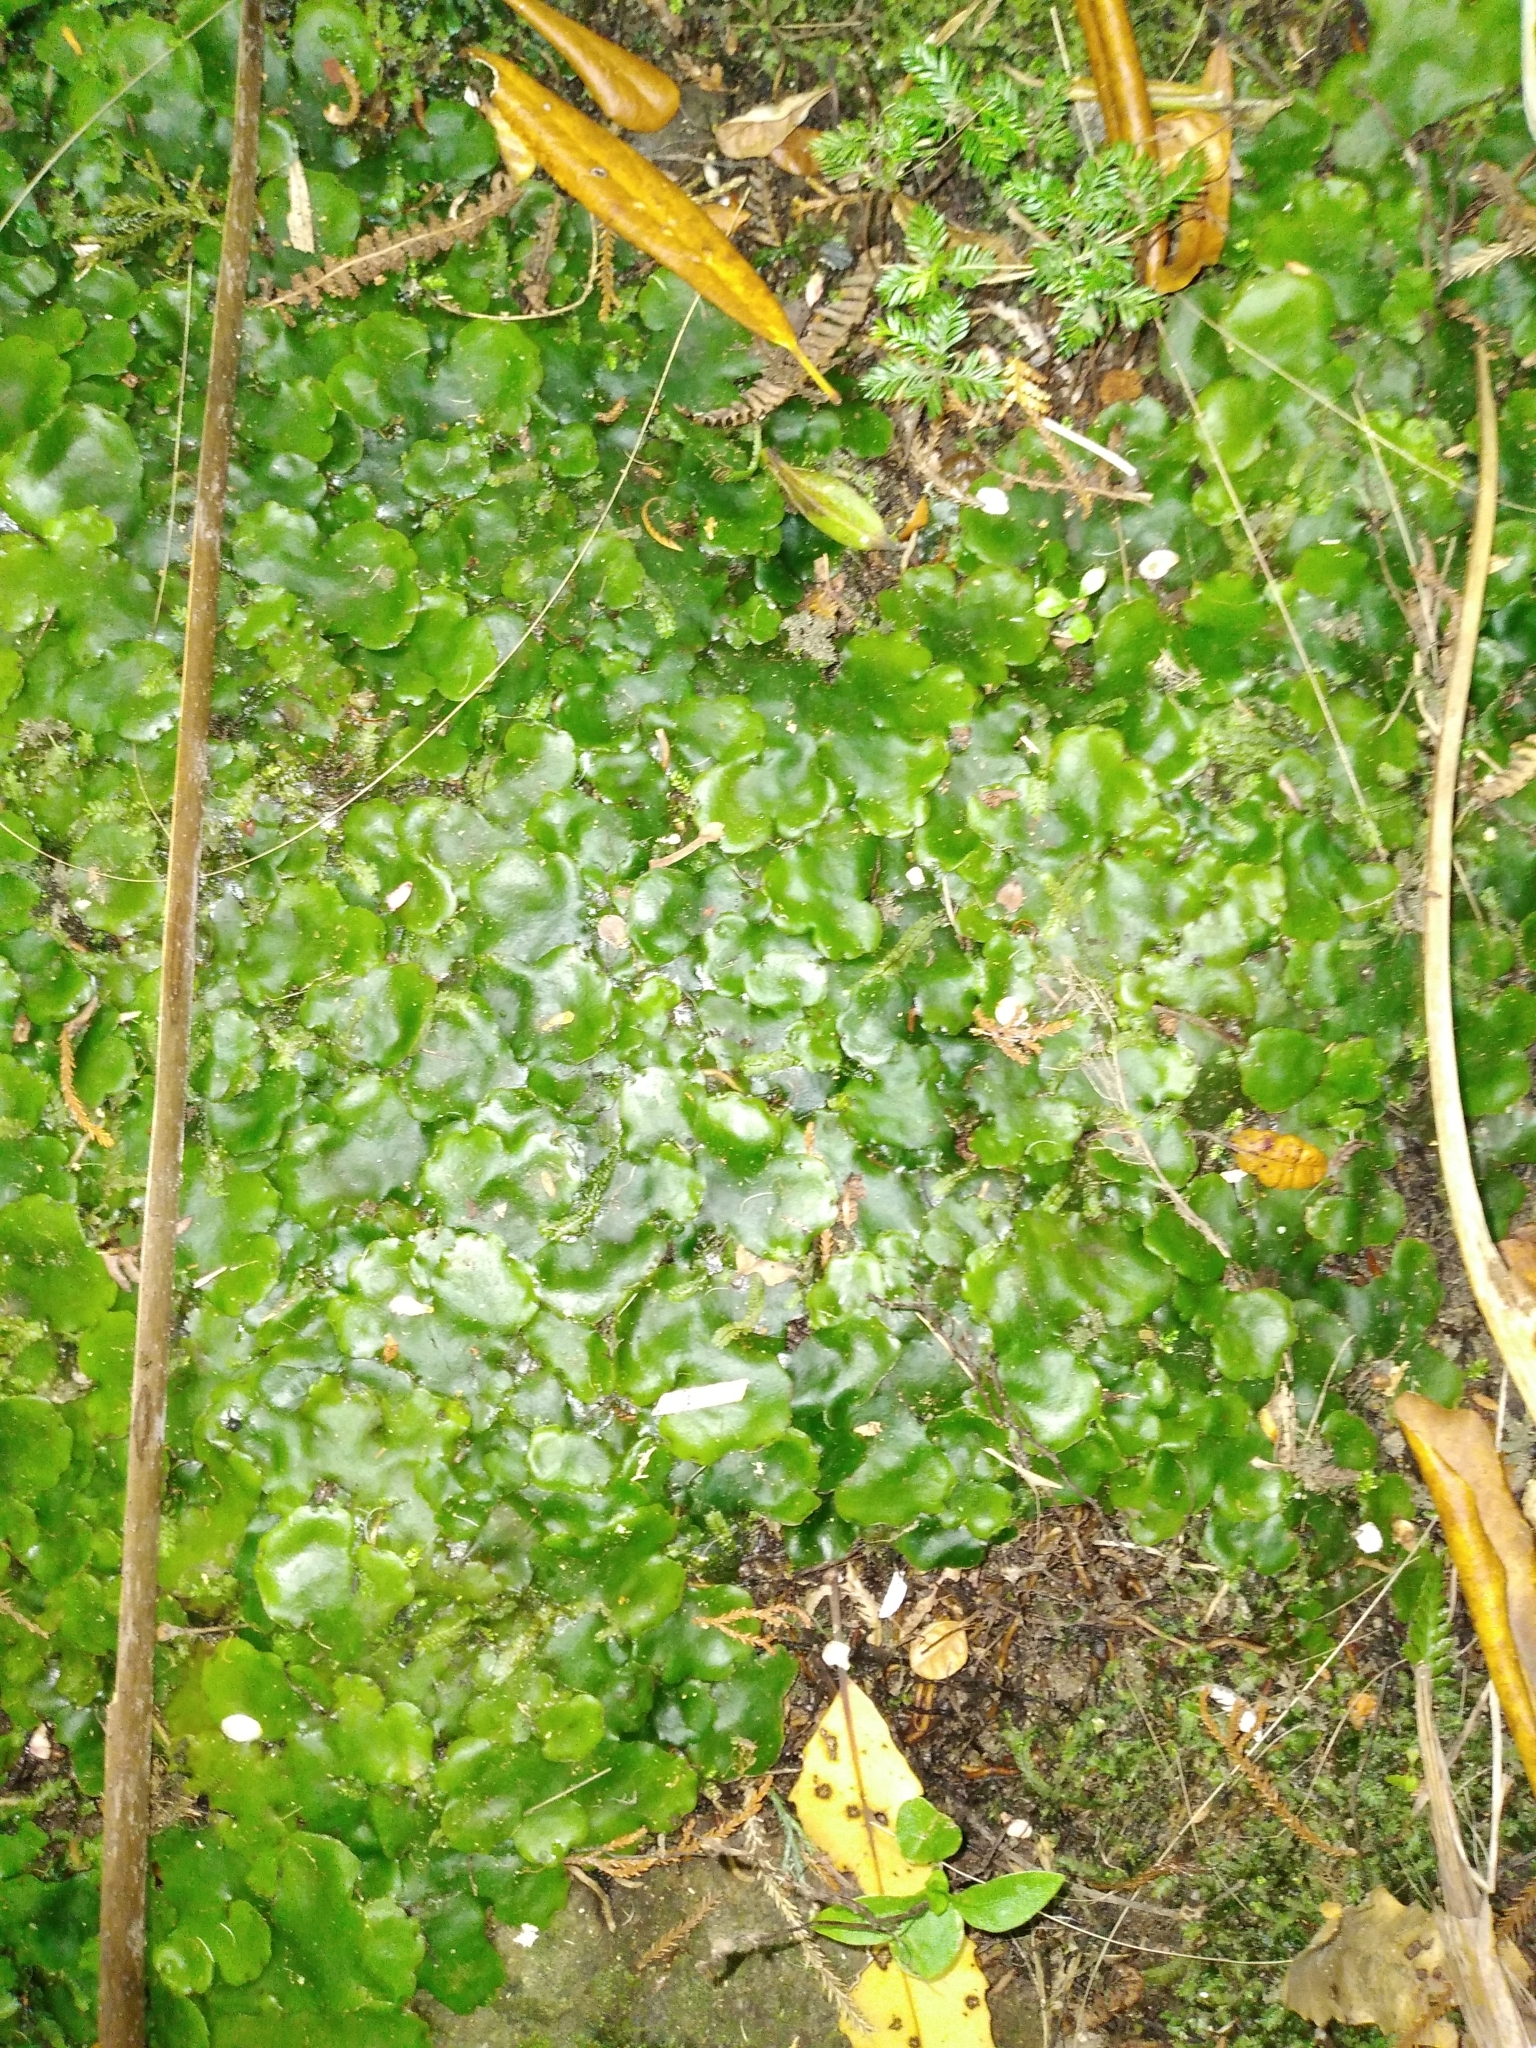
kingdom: Plantae
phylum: Marchantiophyta
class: Marchantiopsida
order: Marchantiales
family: Monocleaceae
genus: Monoclea
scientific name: Monoclea forsteri
